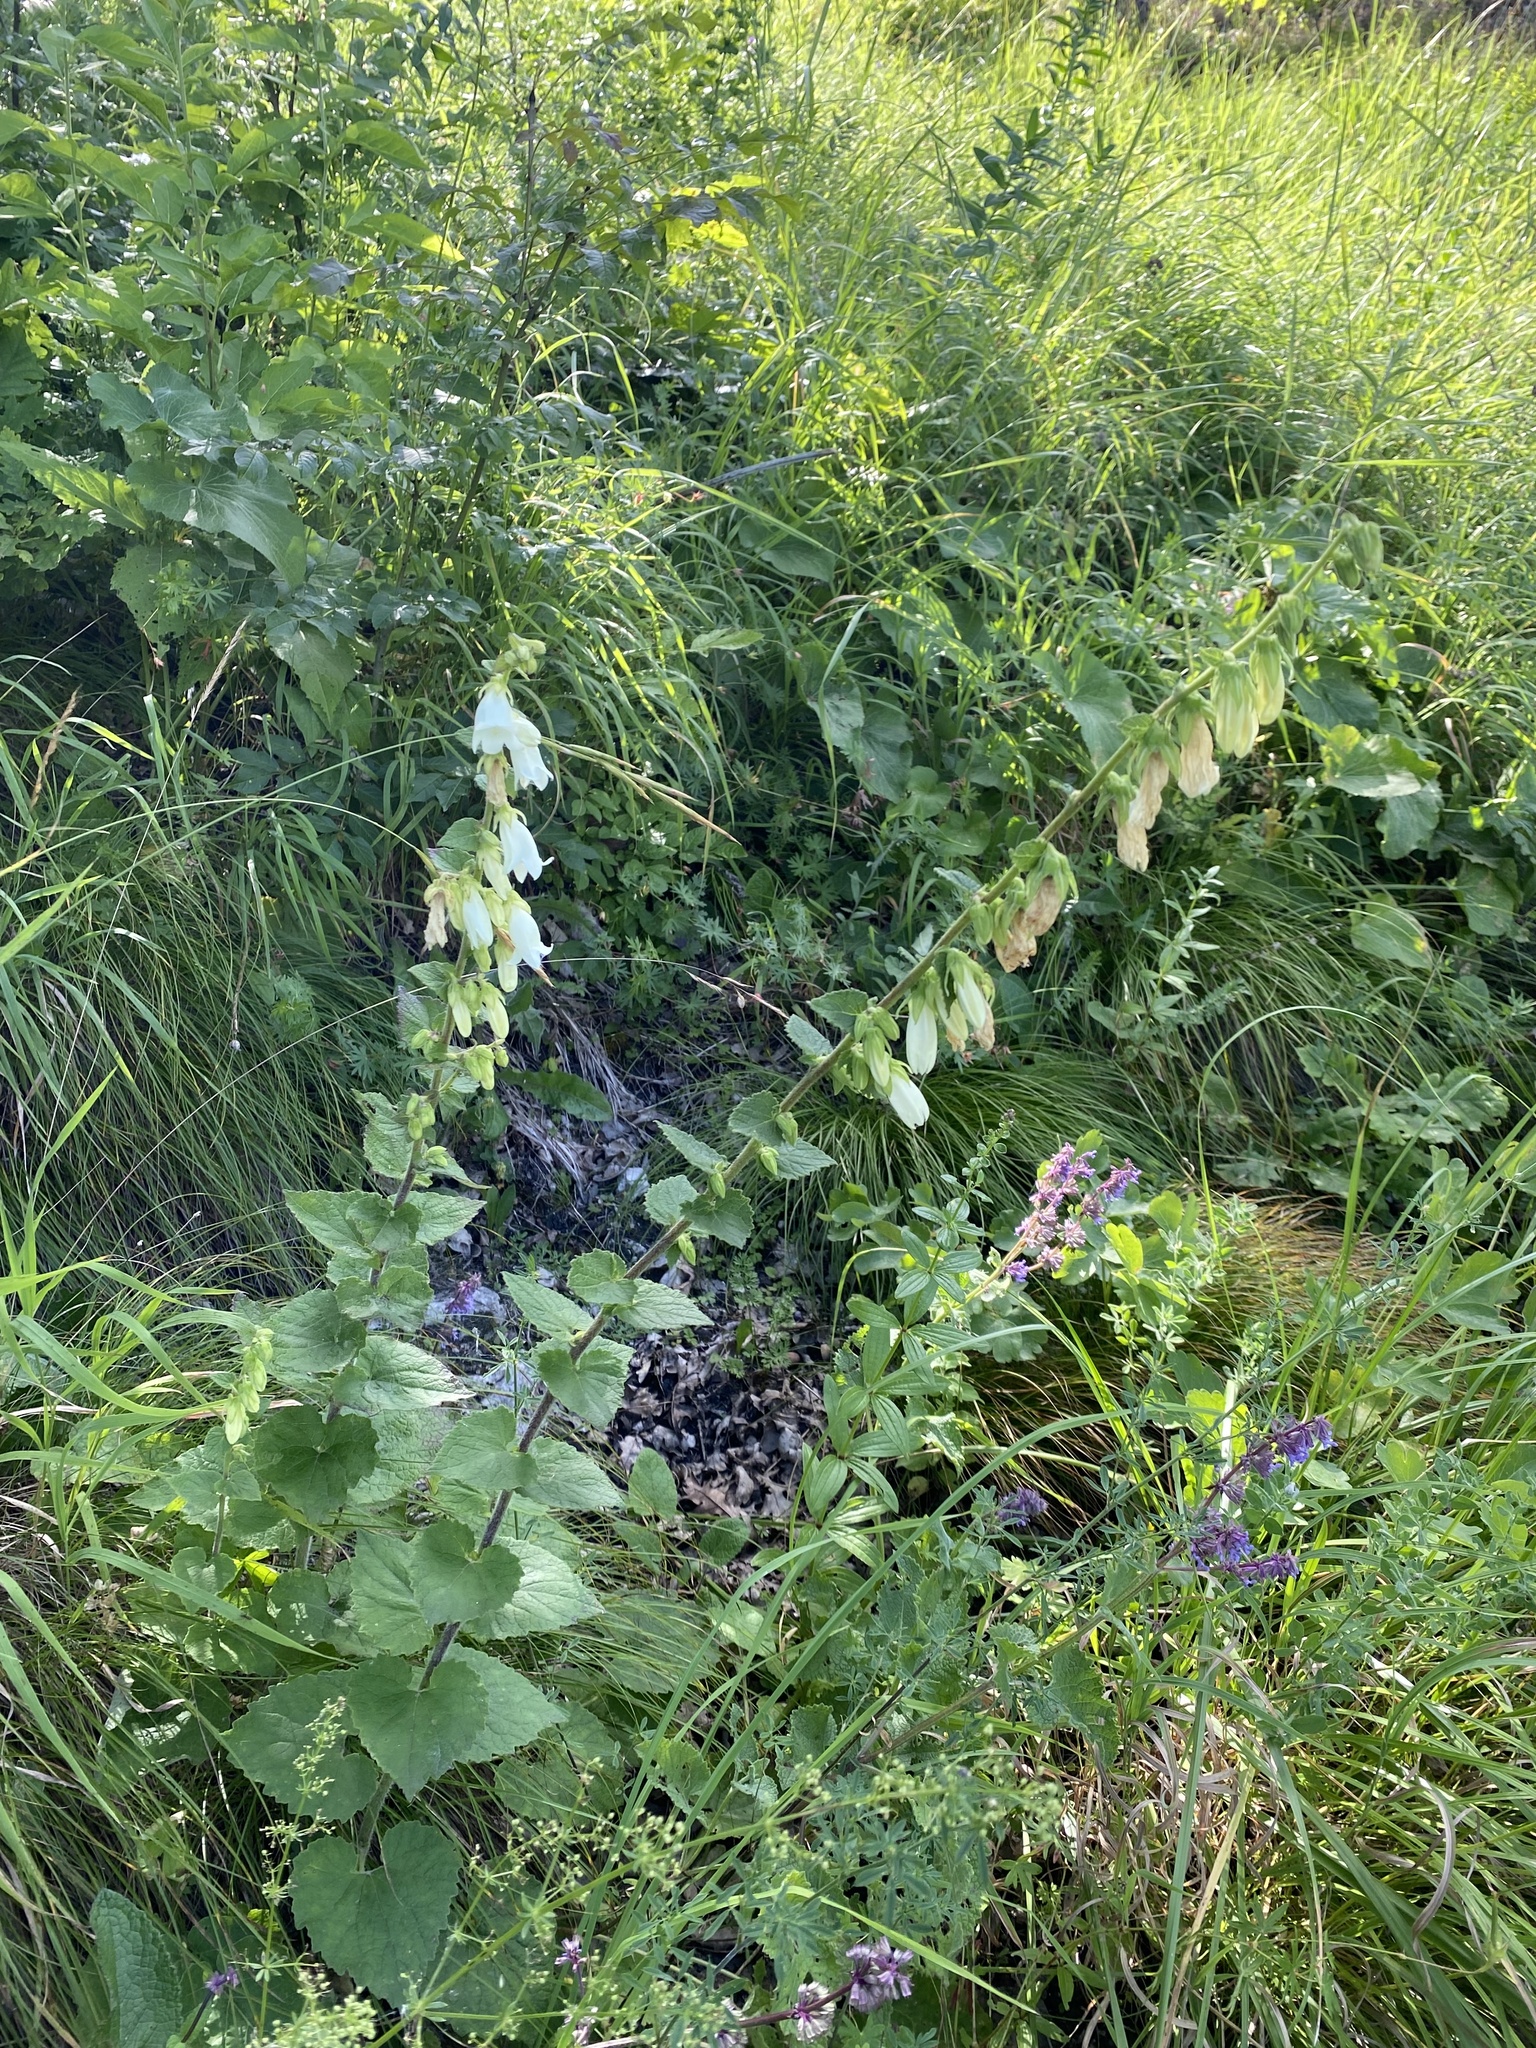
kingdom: Plantae
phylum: Tracheophyta
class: Magnoliopsida
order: Asterales
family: Campanulaceae
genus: Campanula
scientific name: Campanula alliariifolia
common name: Cornish bellflower
